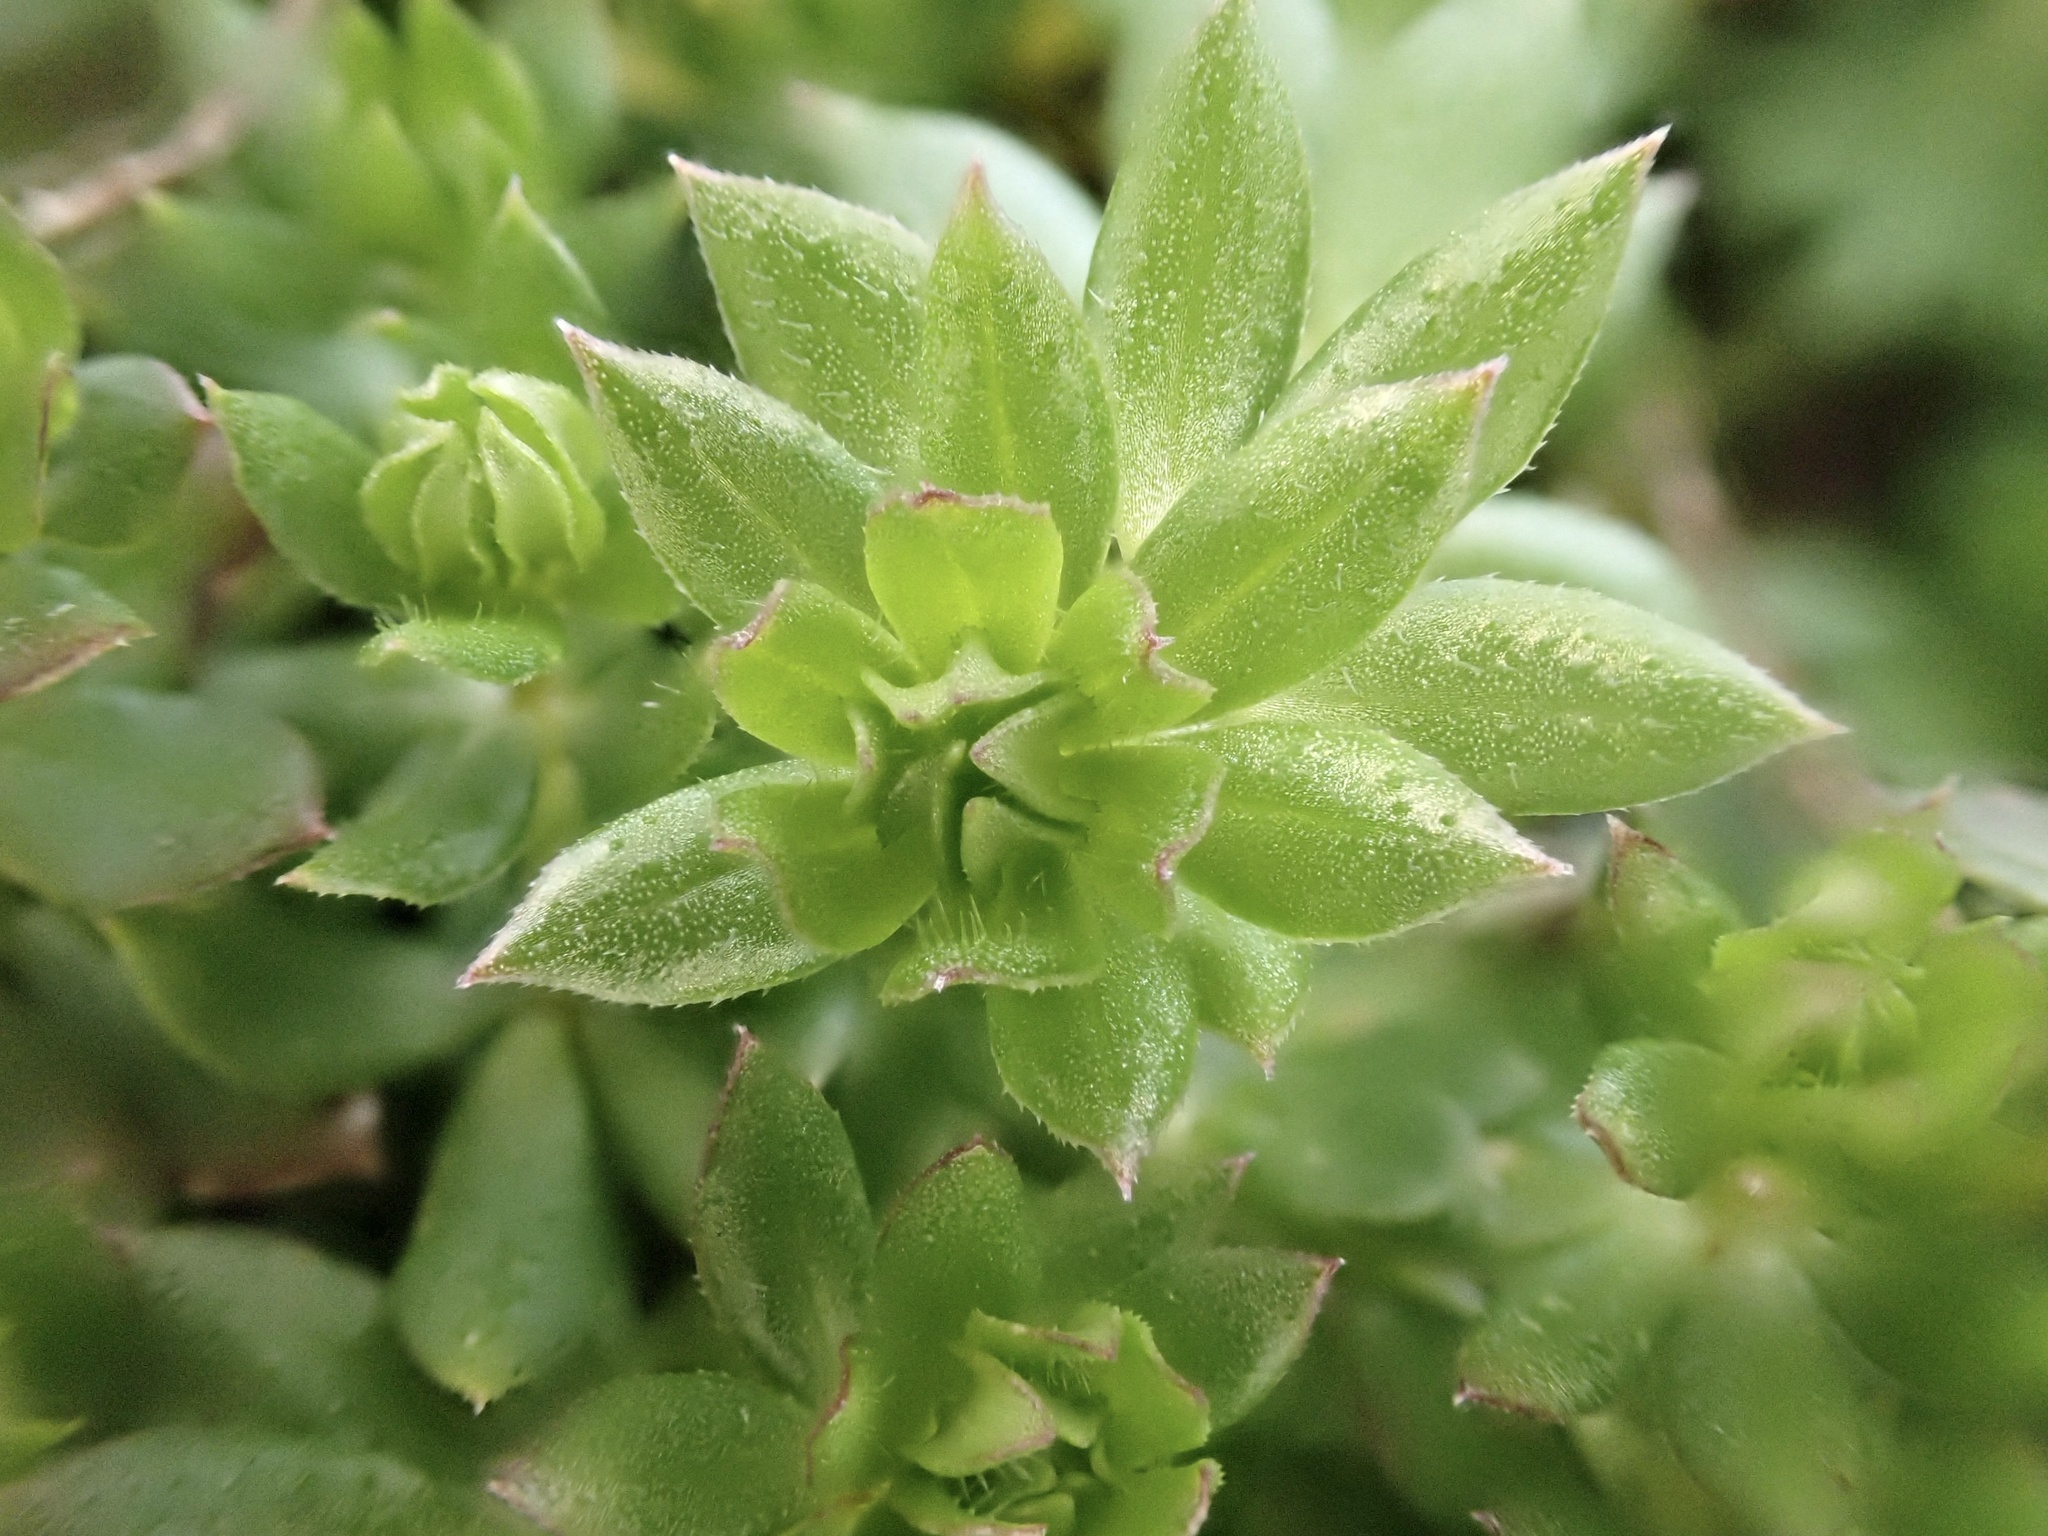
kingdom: Plantae
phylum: Tracheophyta
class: Magnoliopsida
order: Gentianales
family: Rubiaceae
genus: Sherardia
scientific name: Sherardia arvensis
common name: Field madder
